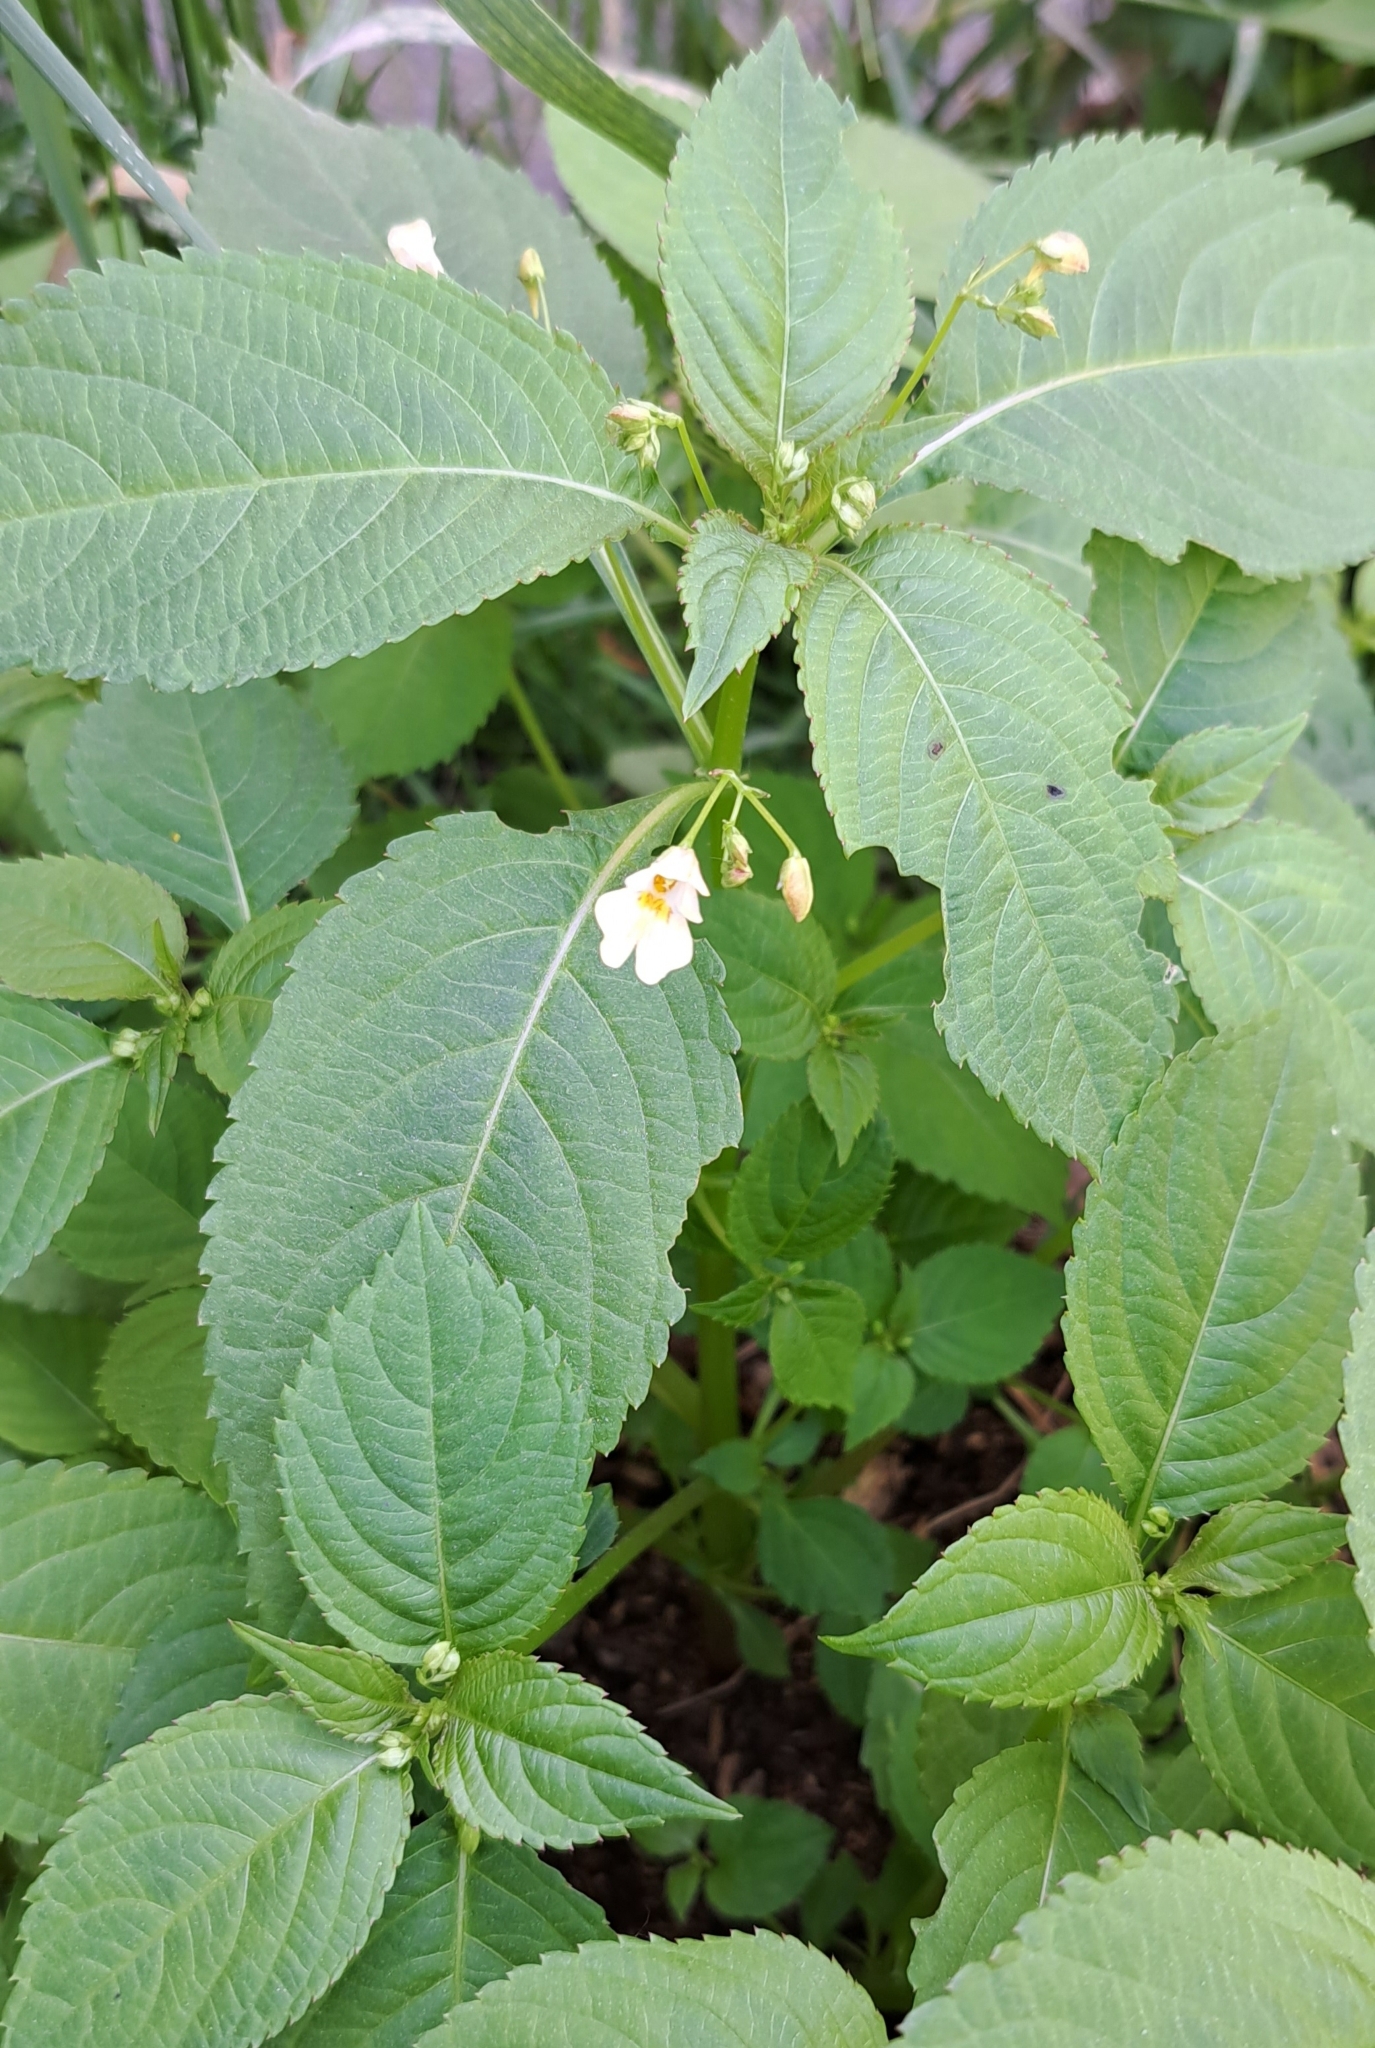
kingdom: Plantae
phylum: Tracheophyta
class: Magnoliopsida
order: Ericales
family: Balsaminaceae
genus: Impatiens
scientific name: Impatiens parviflora
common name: Small balsam
